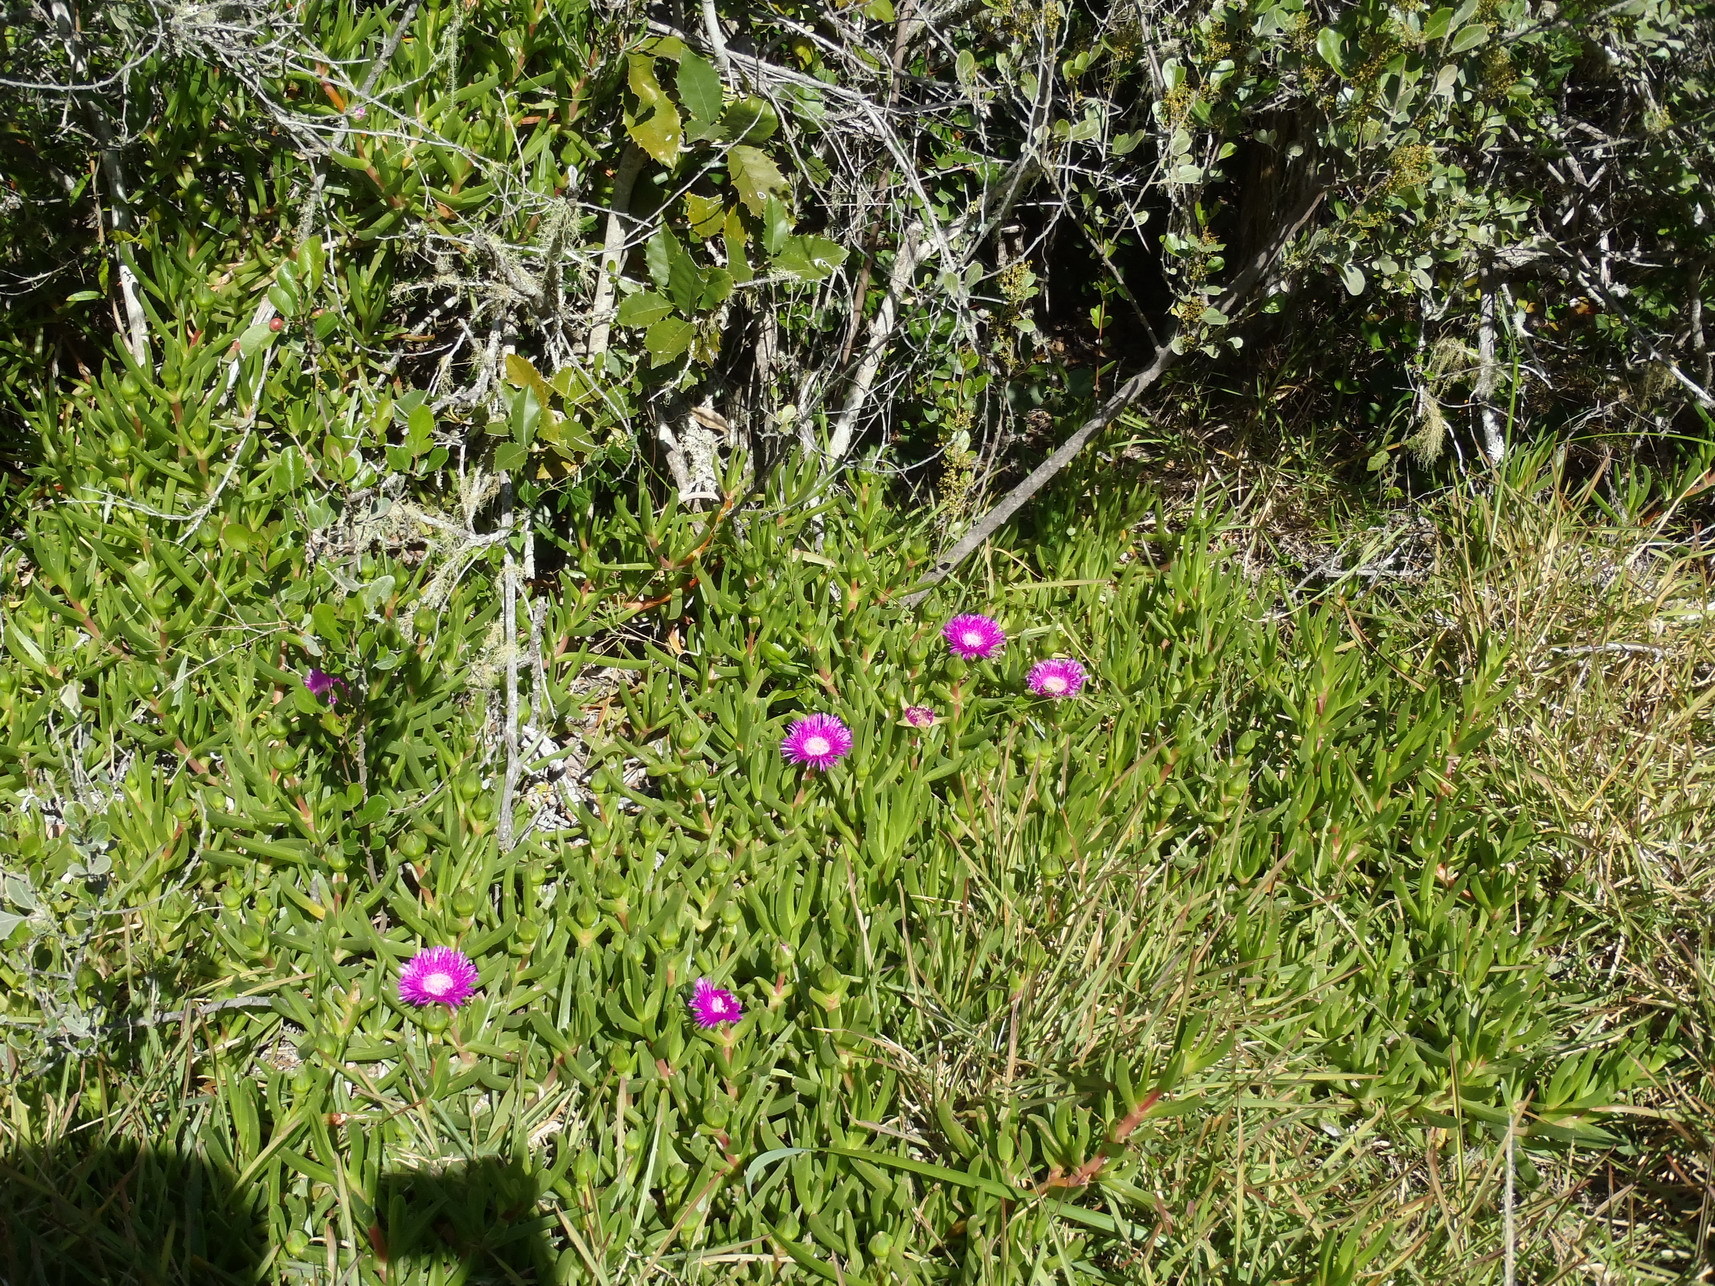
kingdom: Plantae
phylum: Tracheophyta
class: Magnoliopsida
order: Caryophyllales
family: Aizoaceae
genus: Carpobrotus
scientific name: Carpobrotus deliciosus
